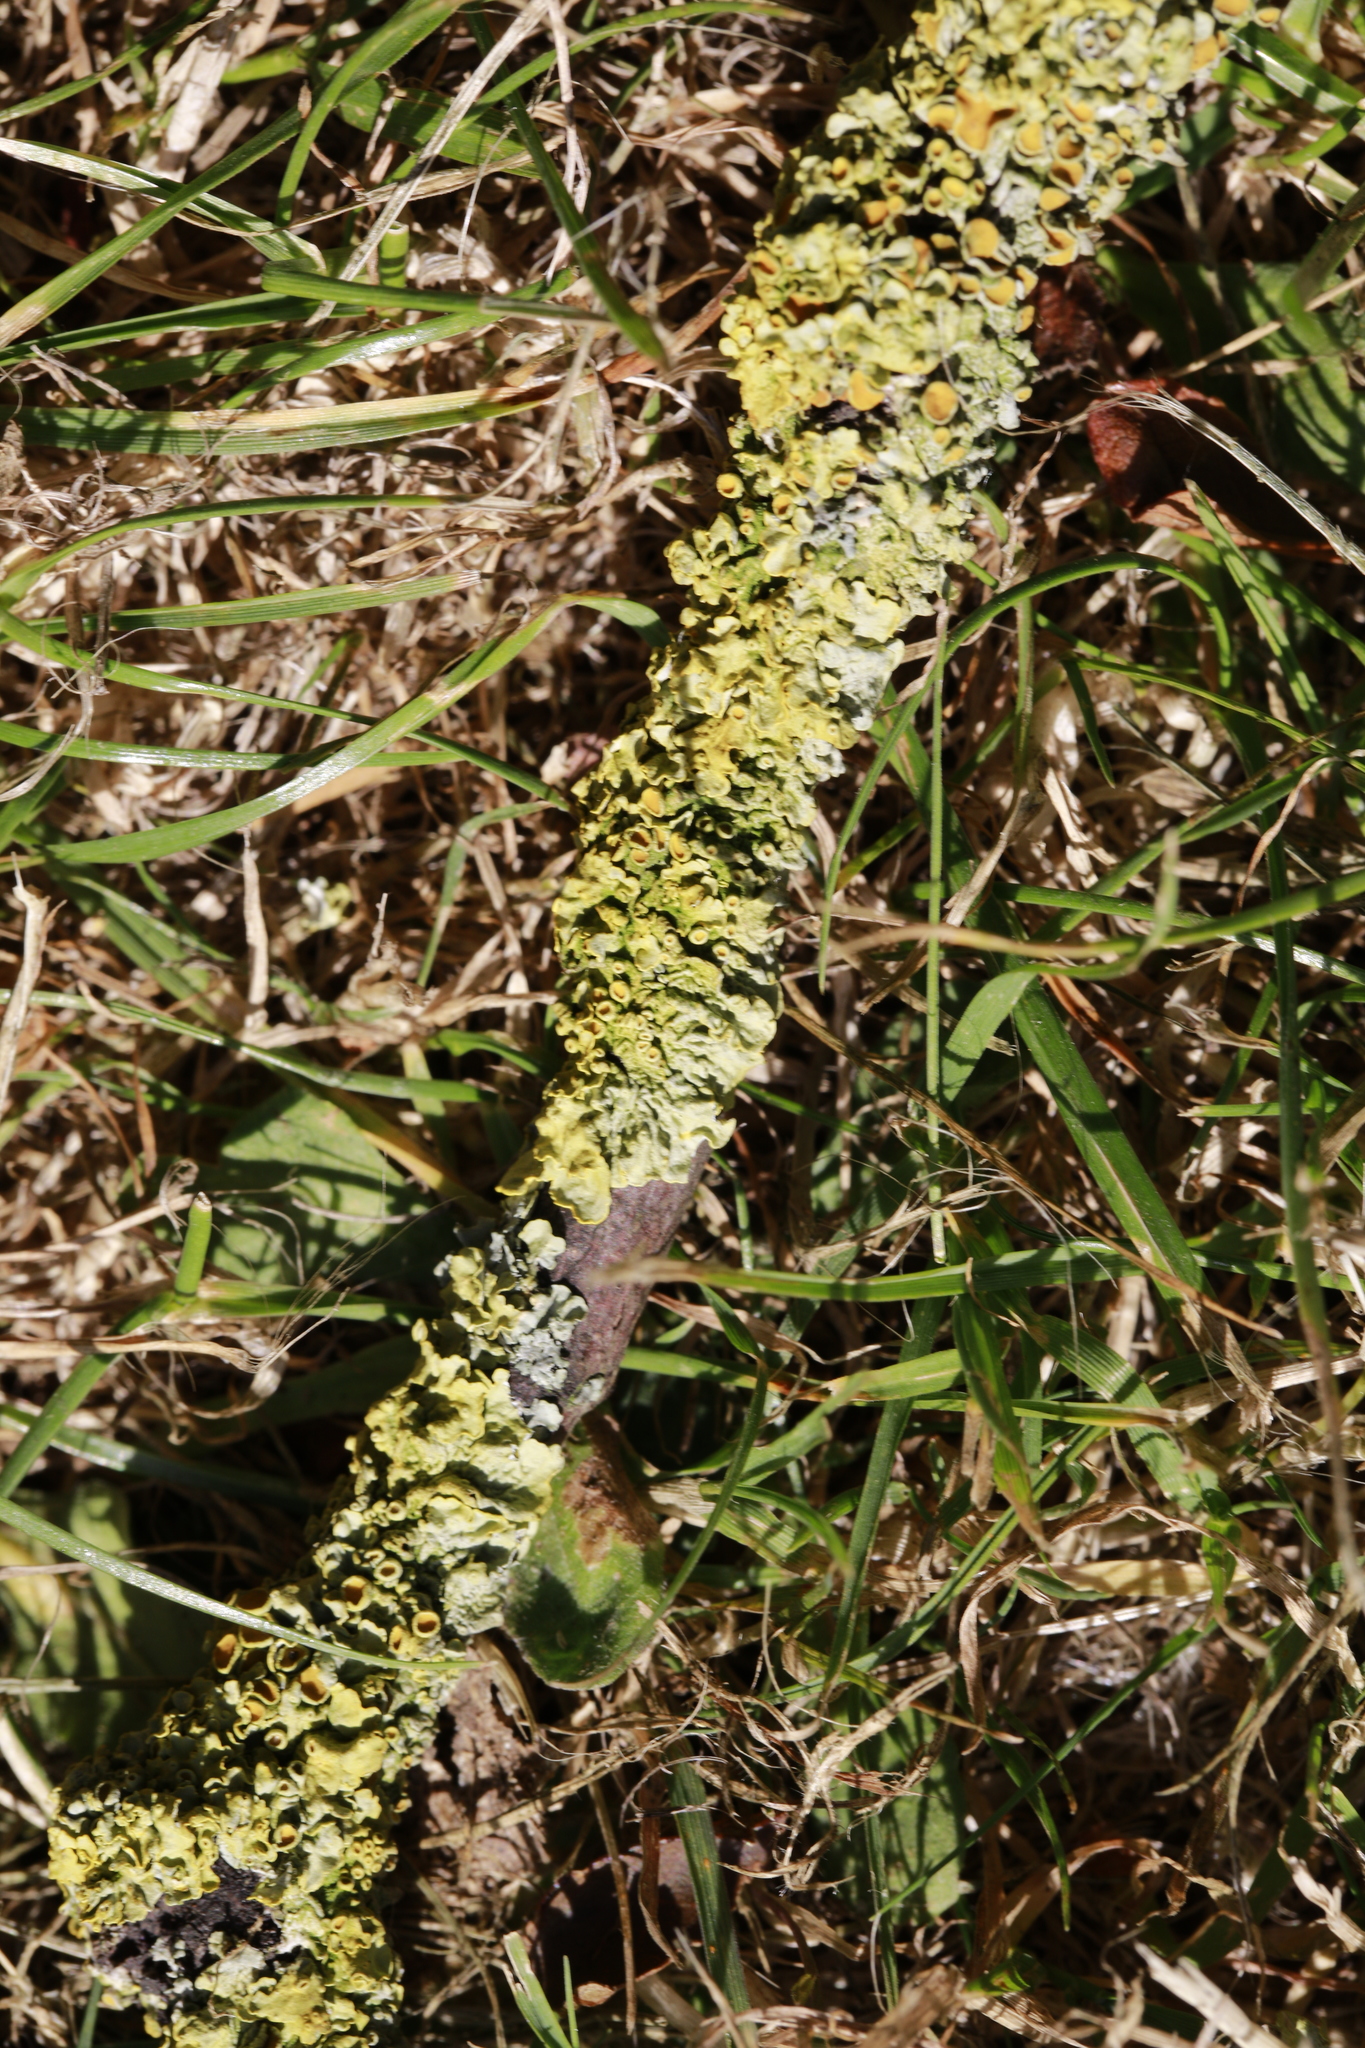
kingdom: Fungi
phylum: Ascomycota
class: Lecanoromycetes
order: Teloschistales
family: Teloschistaceae
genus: Xanthoria
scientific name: Xanthoria parietina
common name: Common orange lichen
